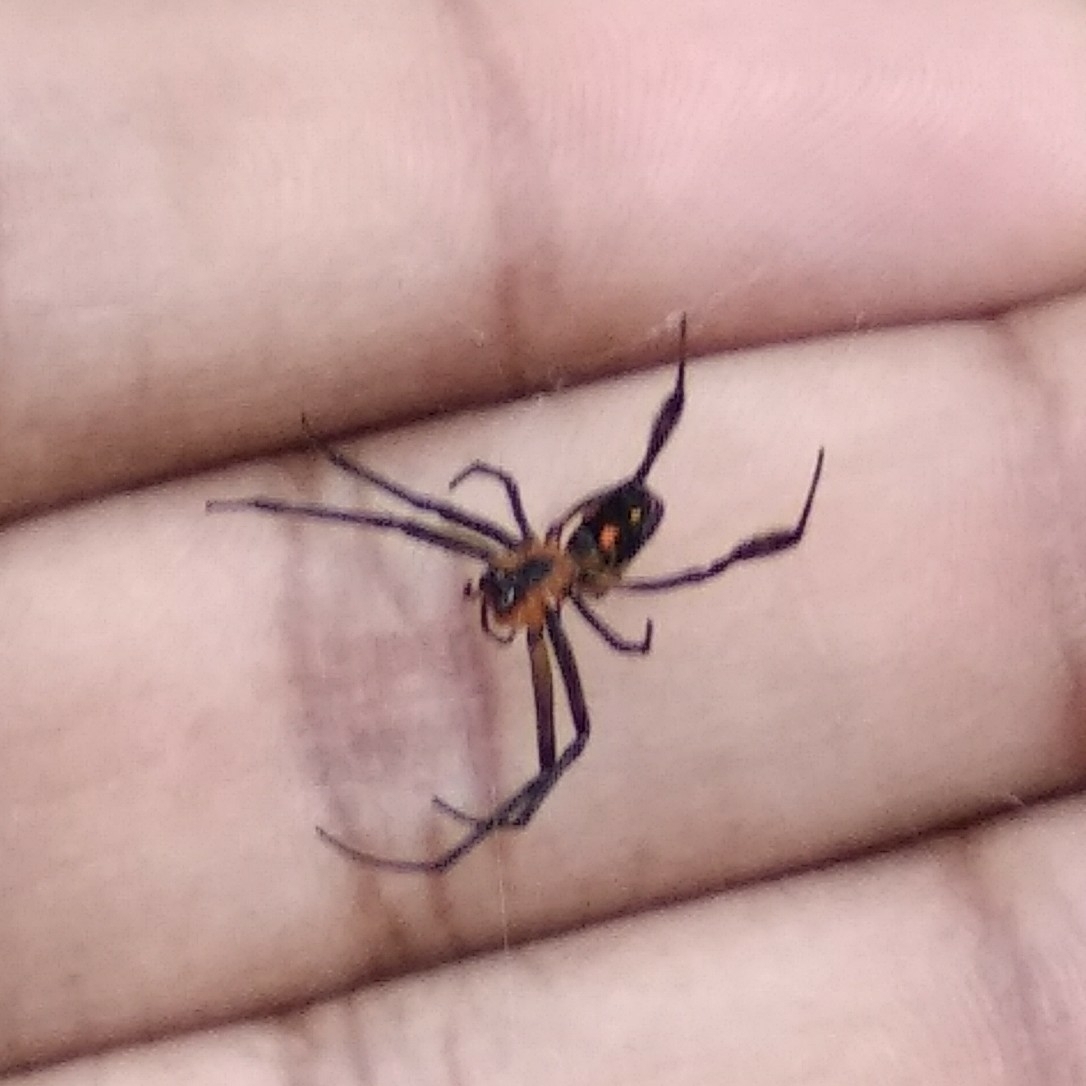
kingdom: Animalia
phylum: Arthropoda
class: Arachnida
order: Araneae
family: Tetragnathidae
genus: Leucauge
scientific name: Leucauge fastigata
